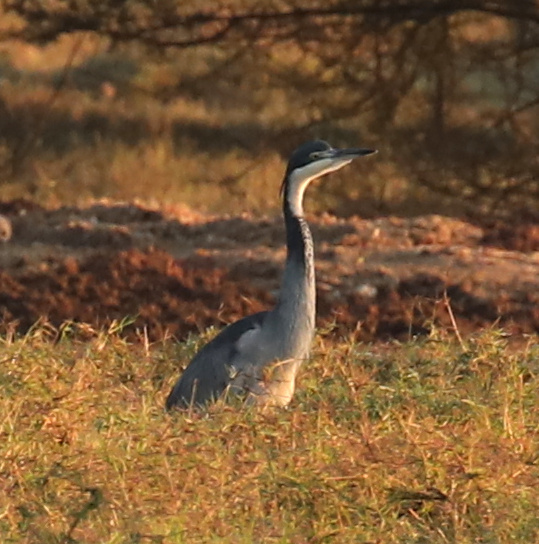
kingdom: Animalia
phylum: Chordata
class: Aves
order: Pelecaniformes
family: Ardeidae
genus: Ardea
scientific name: Ardea melanocephala
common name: Black-headed heron
